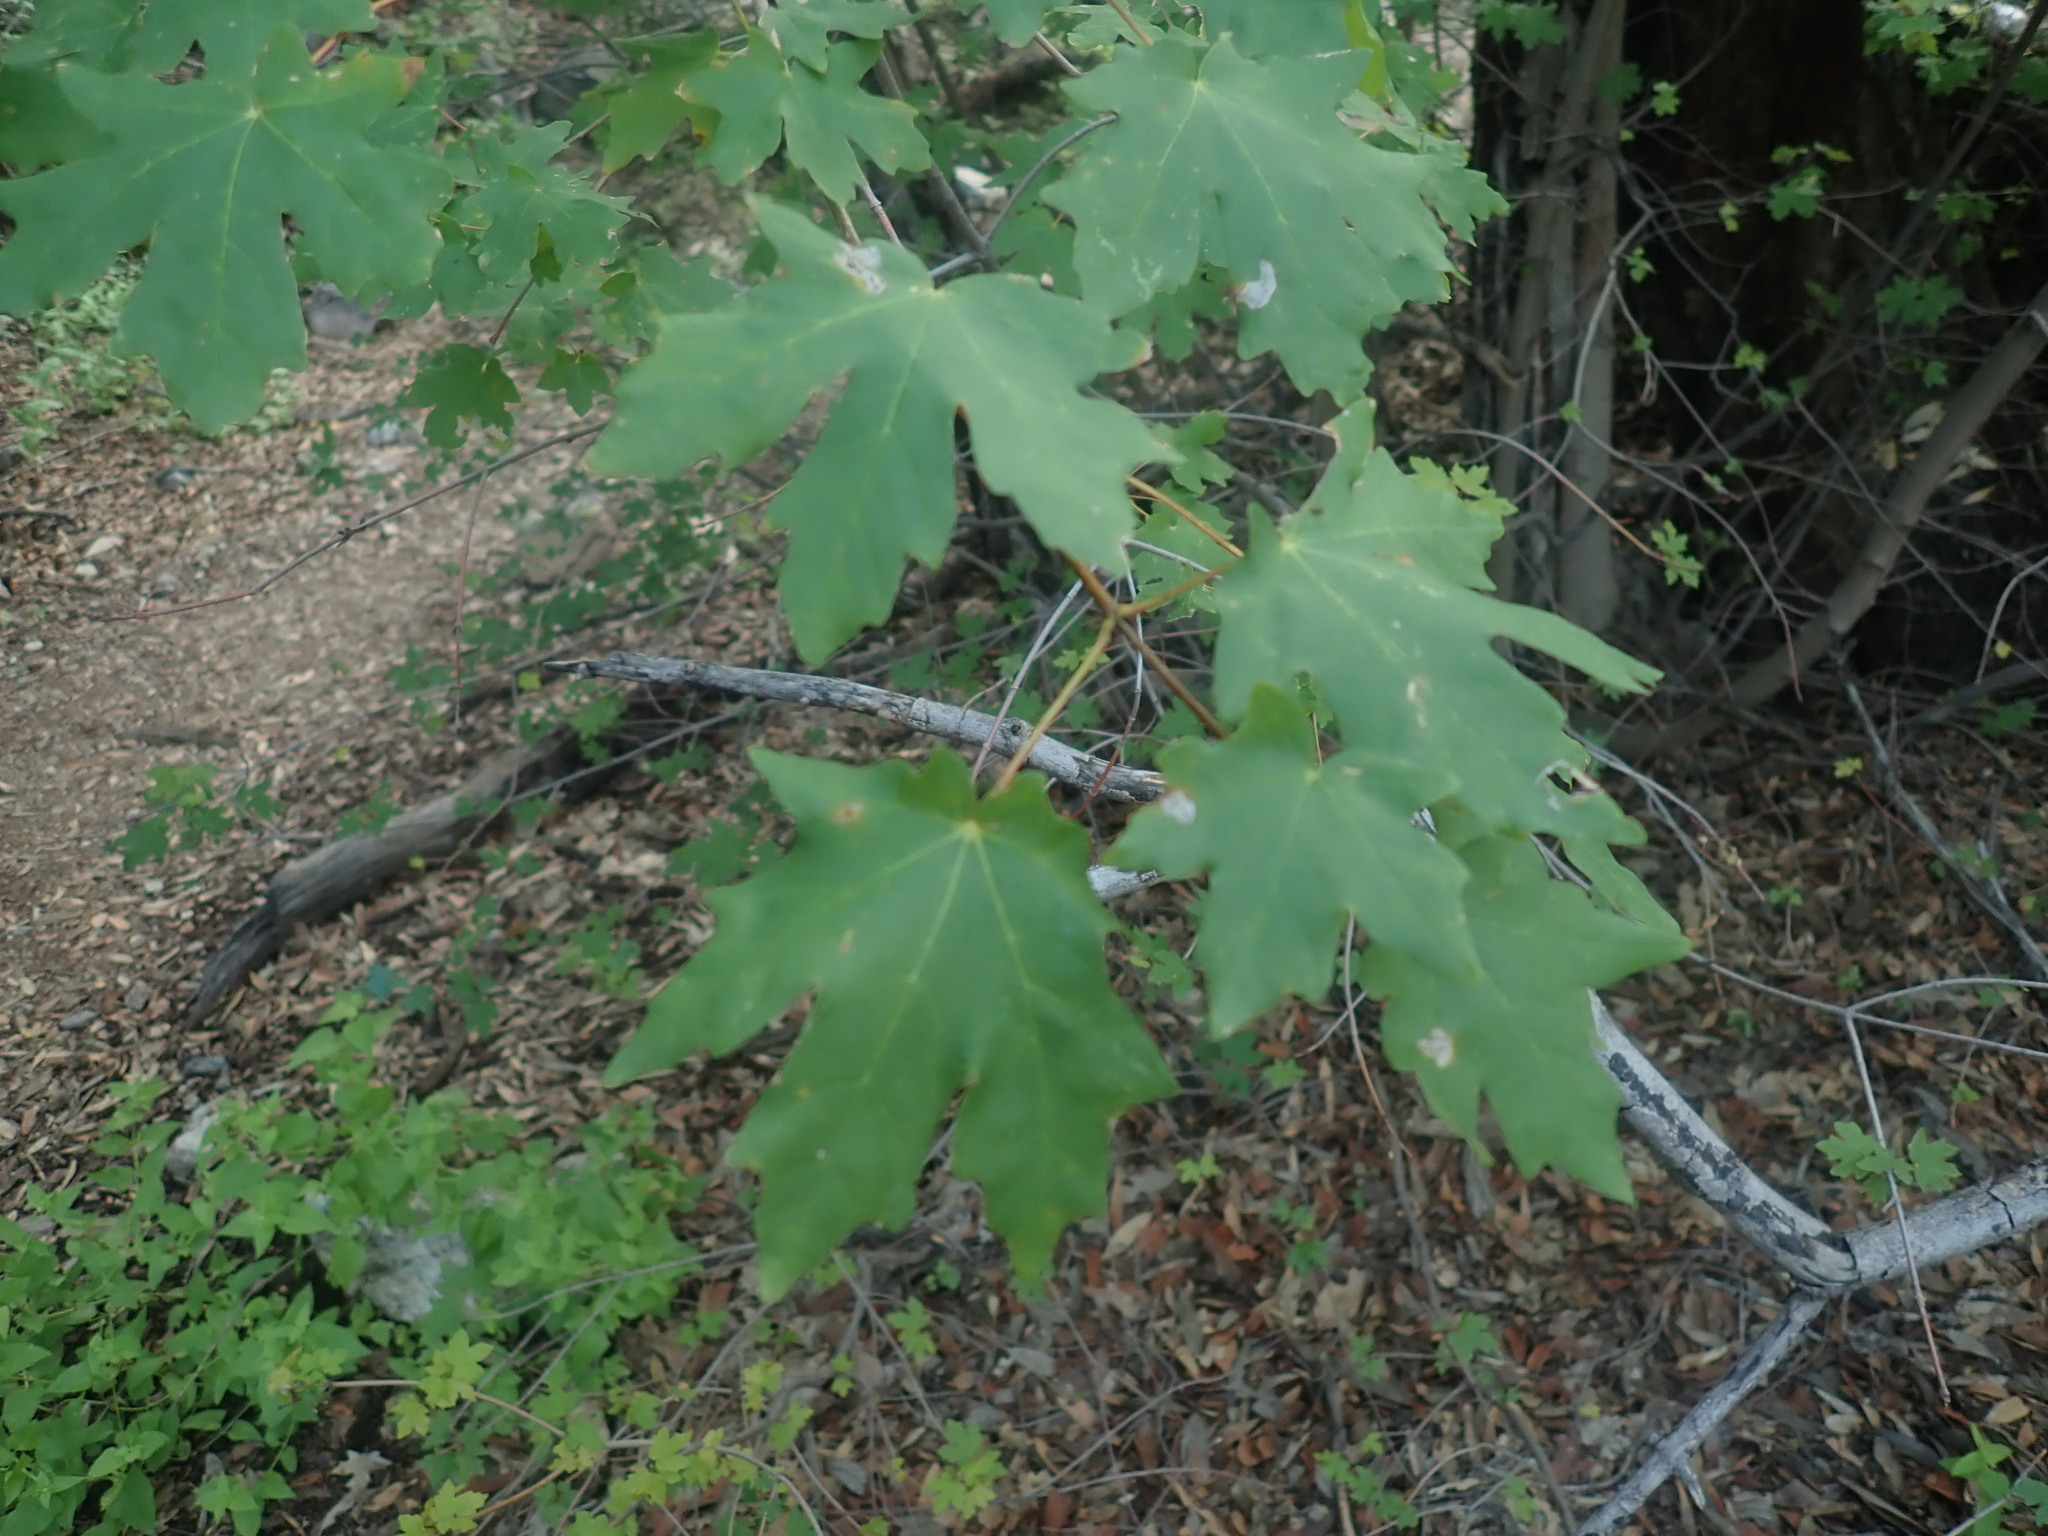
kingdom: Plantae
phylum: Tracheophyta
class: Magnoliopsida
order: Sapindales
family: Sapindaceae
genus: Acer
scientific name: Acer grandidentatum
